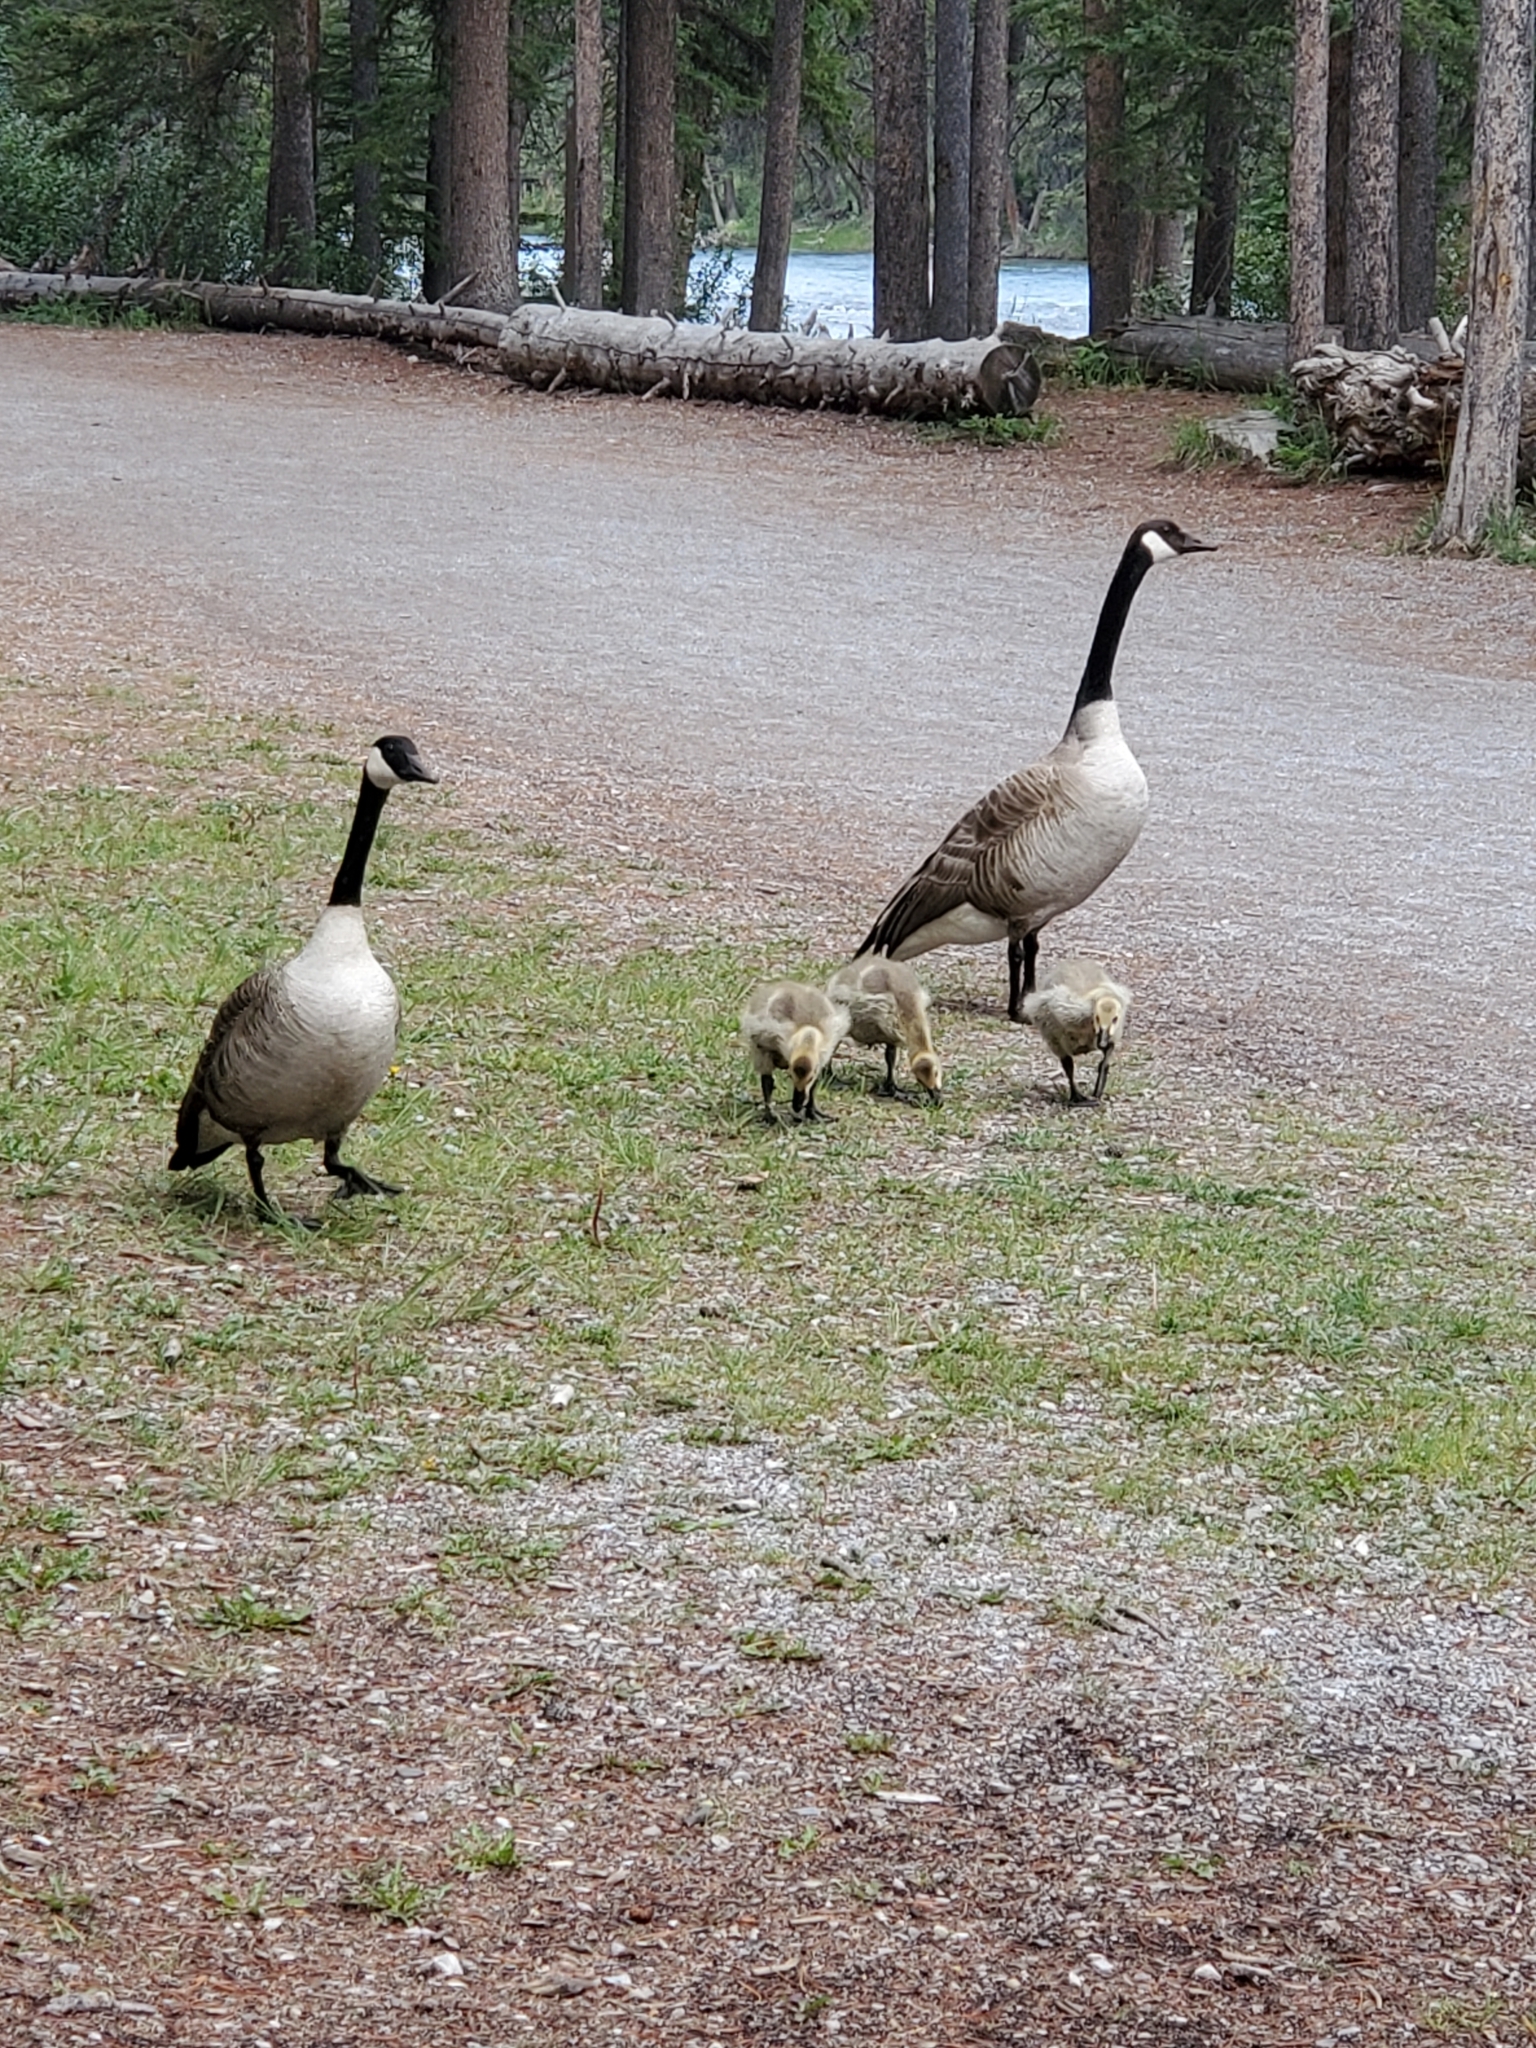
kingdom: Animalia
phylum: Chordata
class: Aves
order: Anseriformes
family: Anatidae
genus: Branta
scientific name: Branta canadensis
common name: Canada goose
